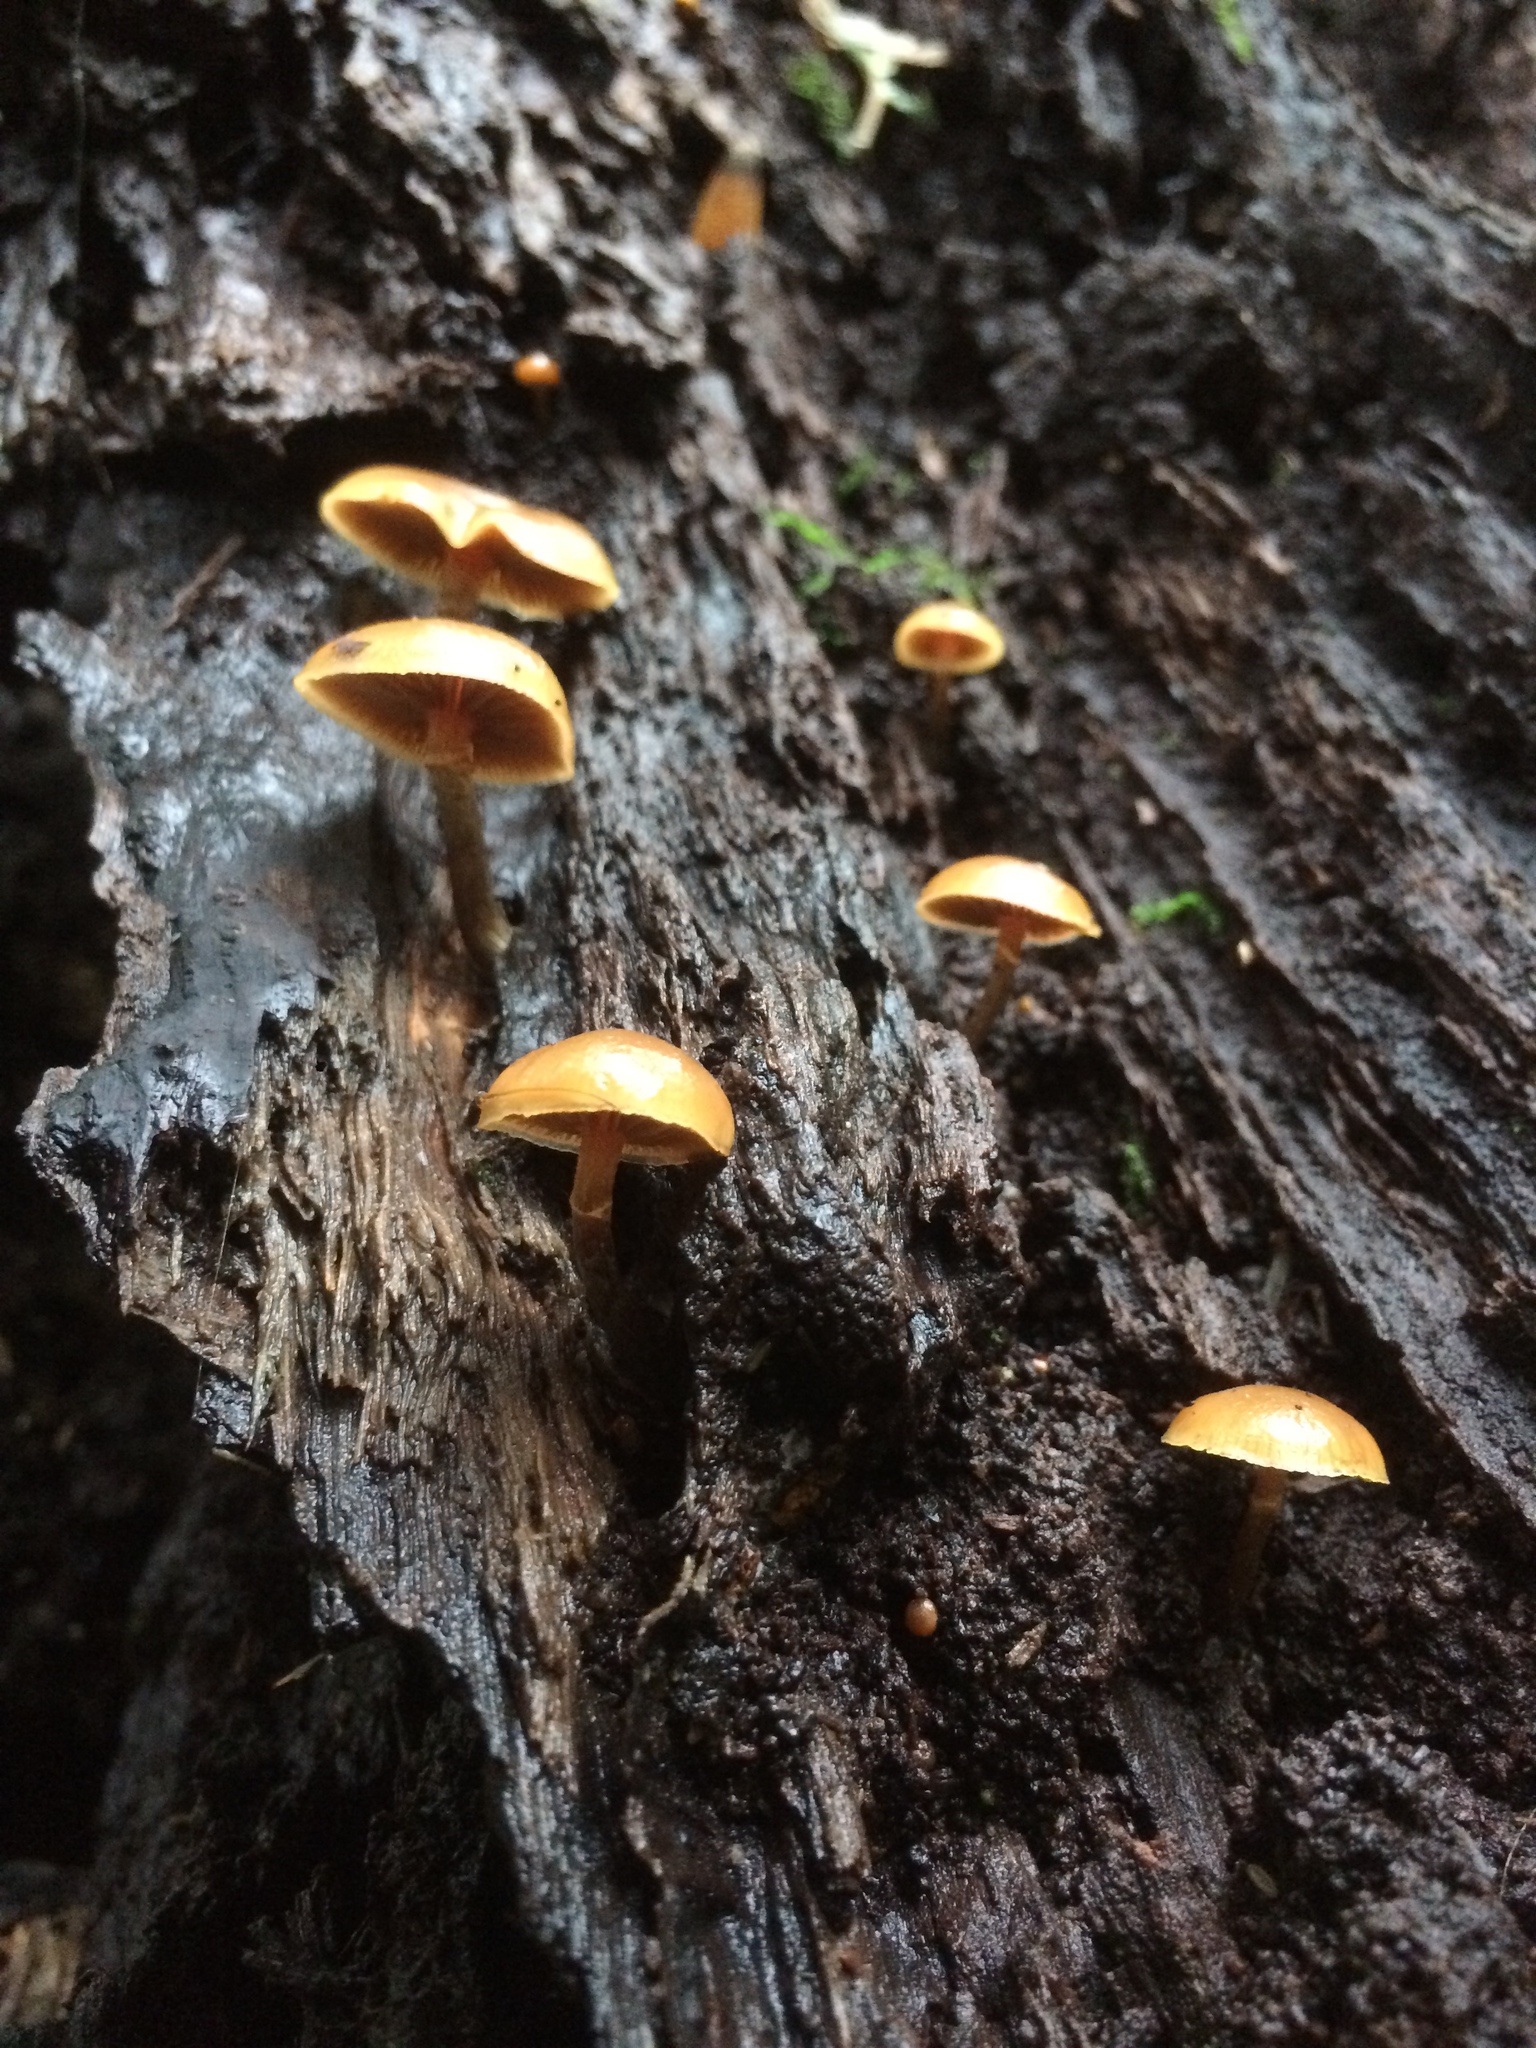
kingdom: Fungi
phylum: Basidiomycota
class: Agaricomycetes
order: Agaricales
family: Hymenogastraceae
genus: Galerina
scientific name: Galerina marginata
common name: Funeral bell
